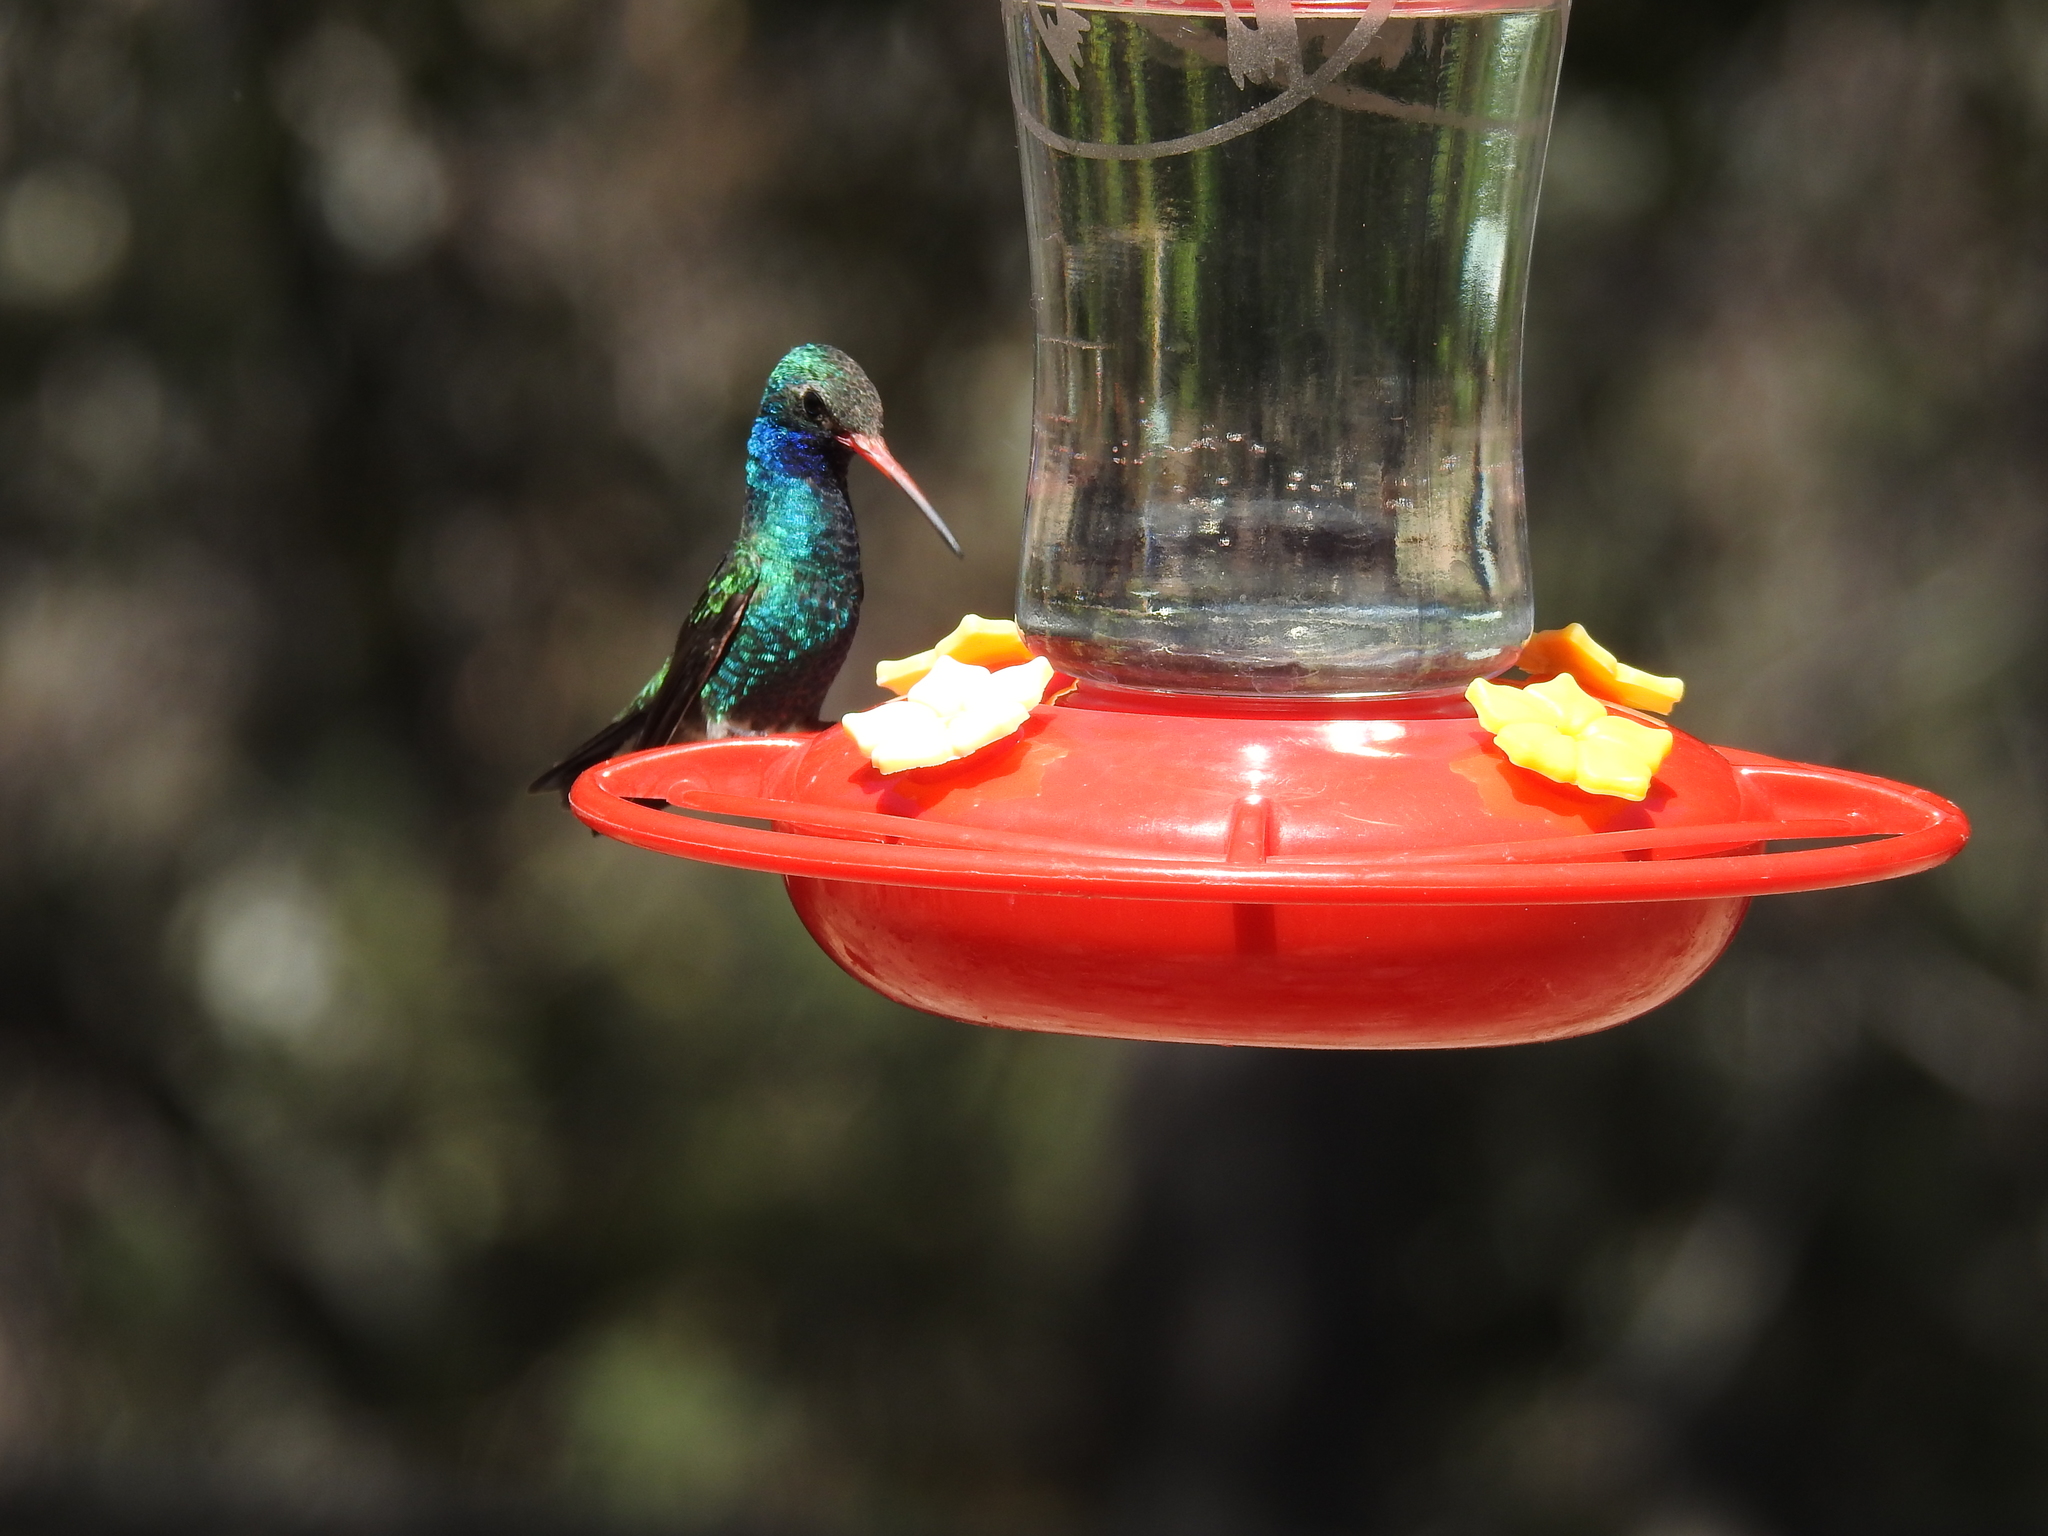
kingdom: Animalia
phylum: Chordata
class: Aves
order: Apodiformes
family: Trochilidae
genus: Cynanthus
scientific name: Cynanthus latirostris
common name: Broad-billed hummingbird
